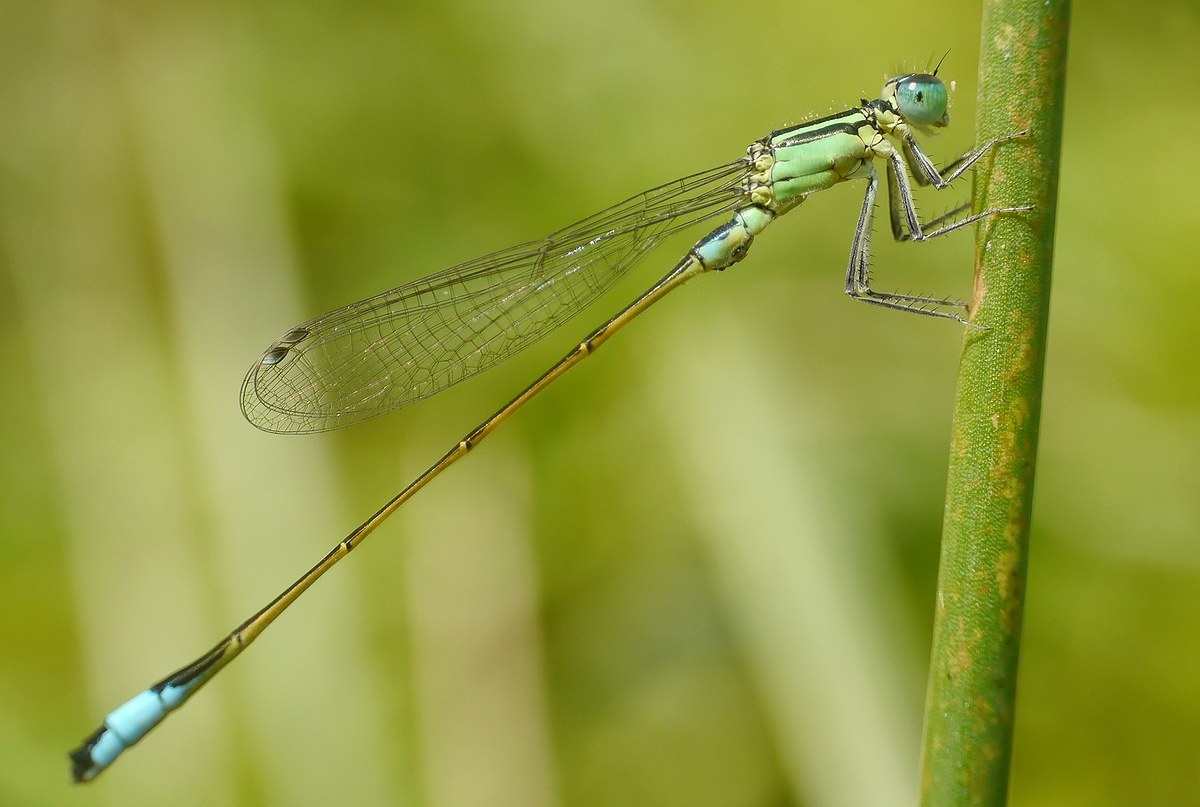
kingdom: Animalia
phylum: Arthropoda
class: Insecta
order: Odonata
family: Coenagrionidae
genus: Ischnura
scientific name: Ischnura elegans
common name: Blue-tailed damselfly
